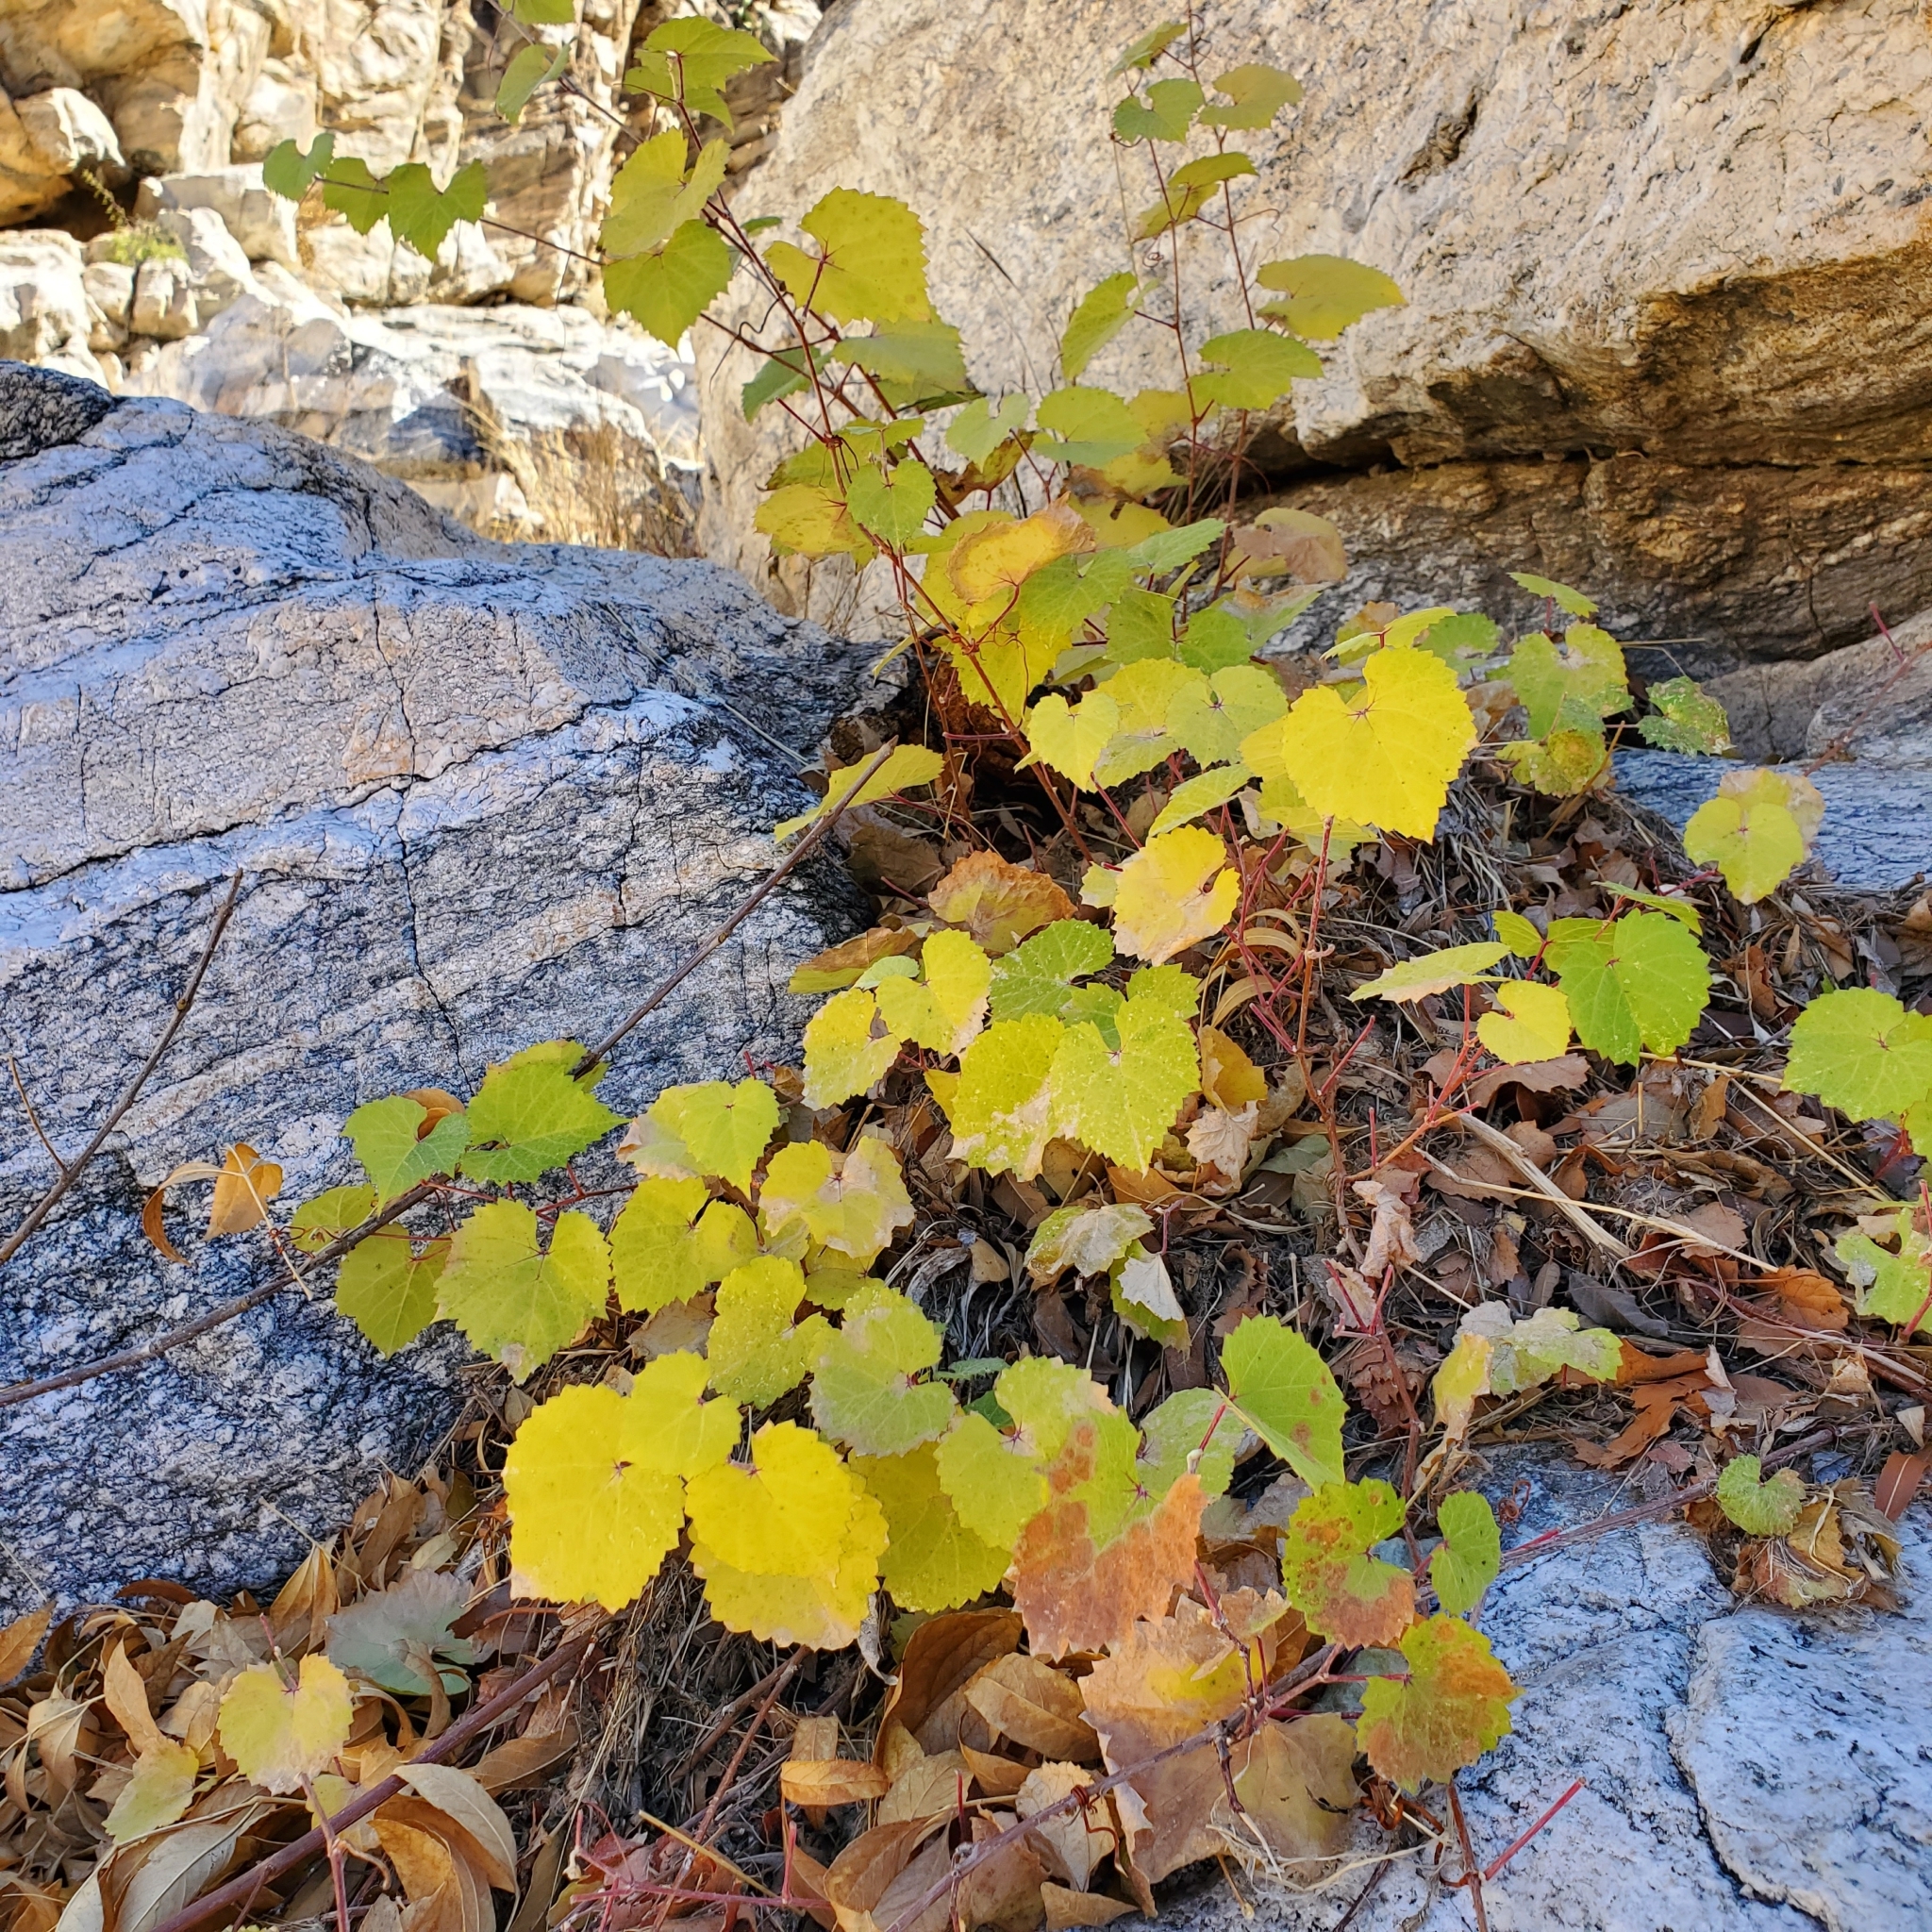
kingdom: Plantae
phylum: Tracheophyta
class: Magnoliopsida
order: Vitales
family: Vitaceae
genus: Vitis
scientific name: Vitis arizonica
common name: Canyon grape
